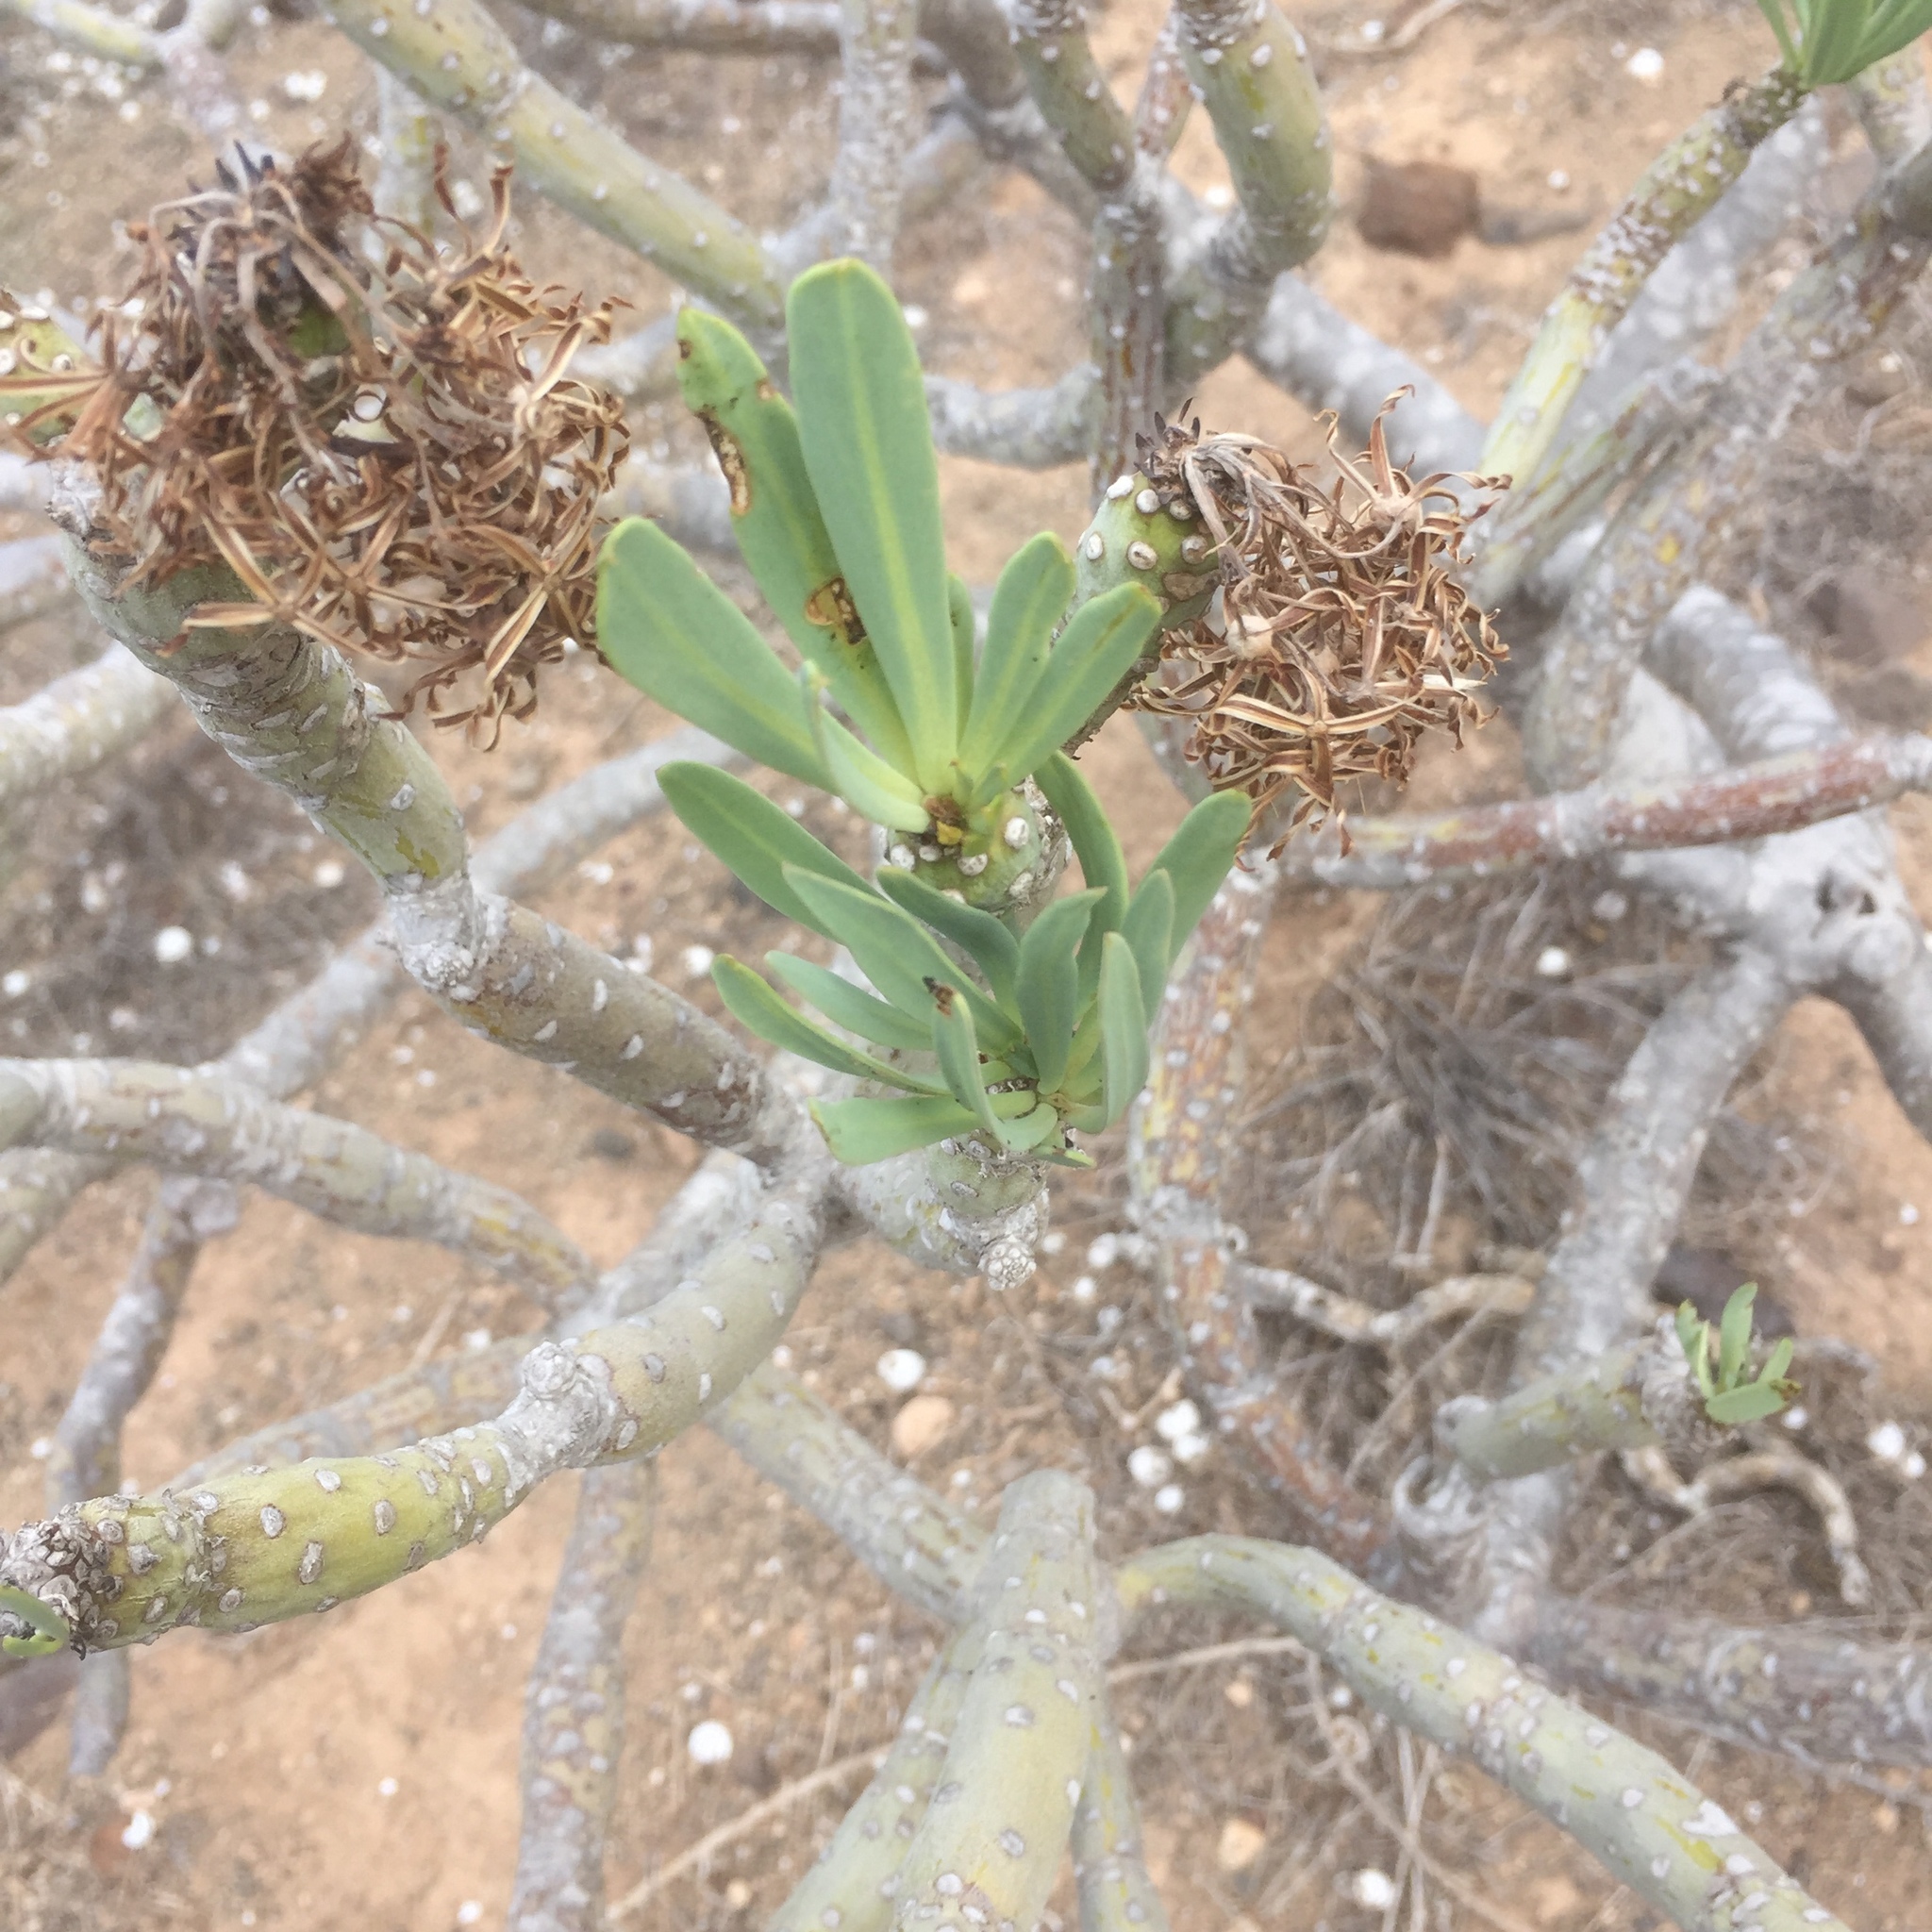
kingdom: Plantae
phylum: Tracheophyta
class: Magnoliopsida
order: Asterales
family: Asteraceae
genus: Kleinia
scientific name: Kleinia neriifolia
